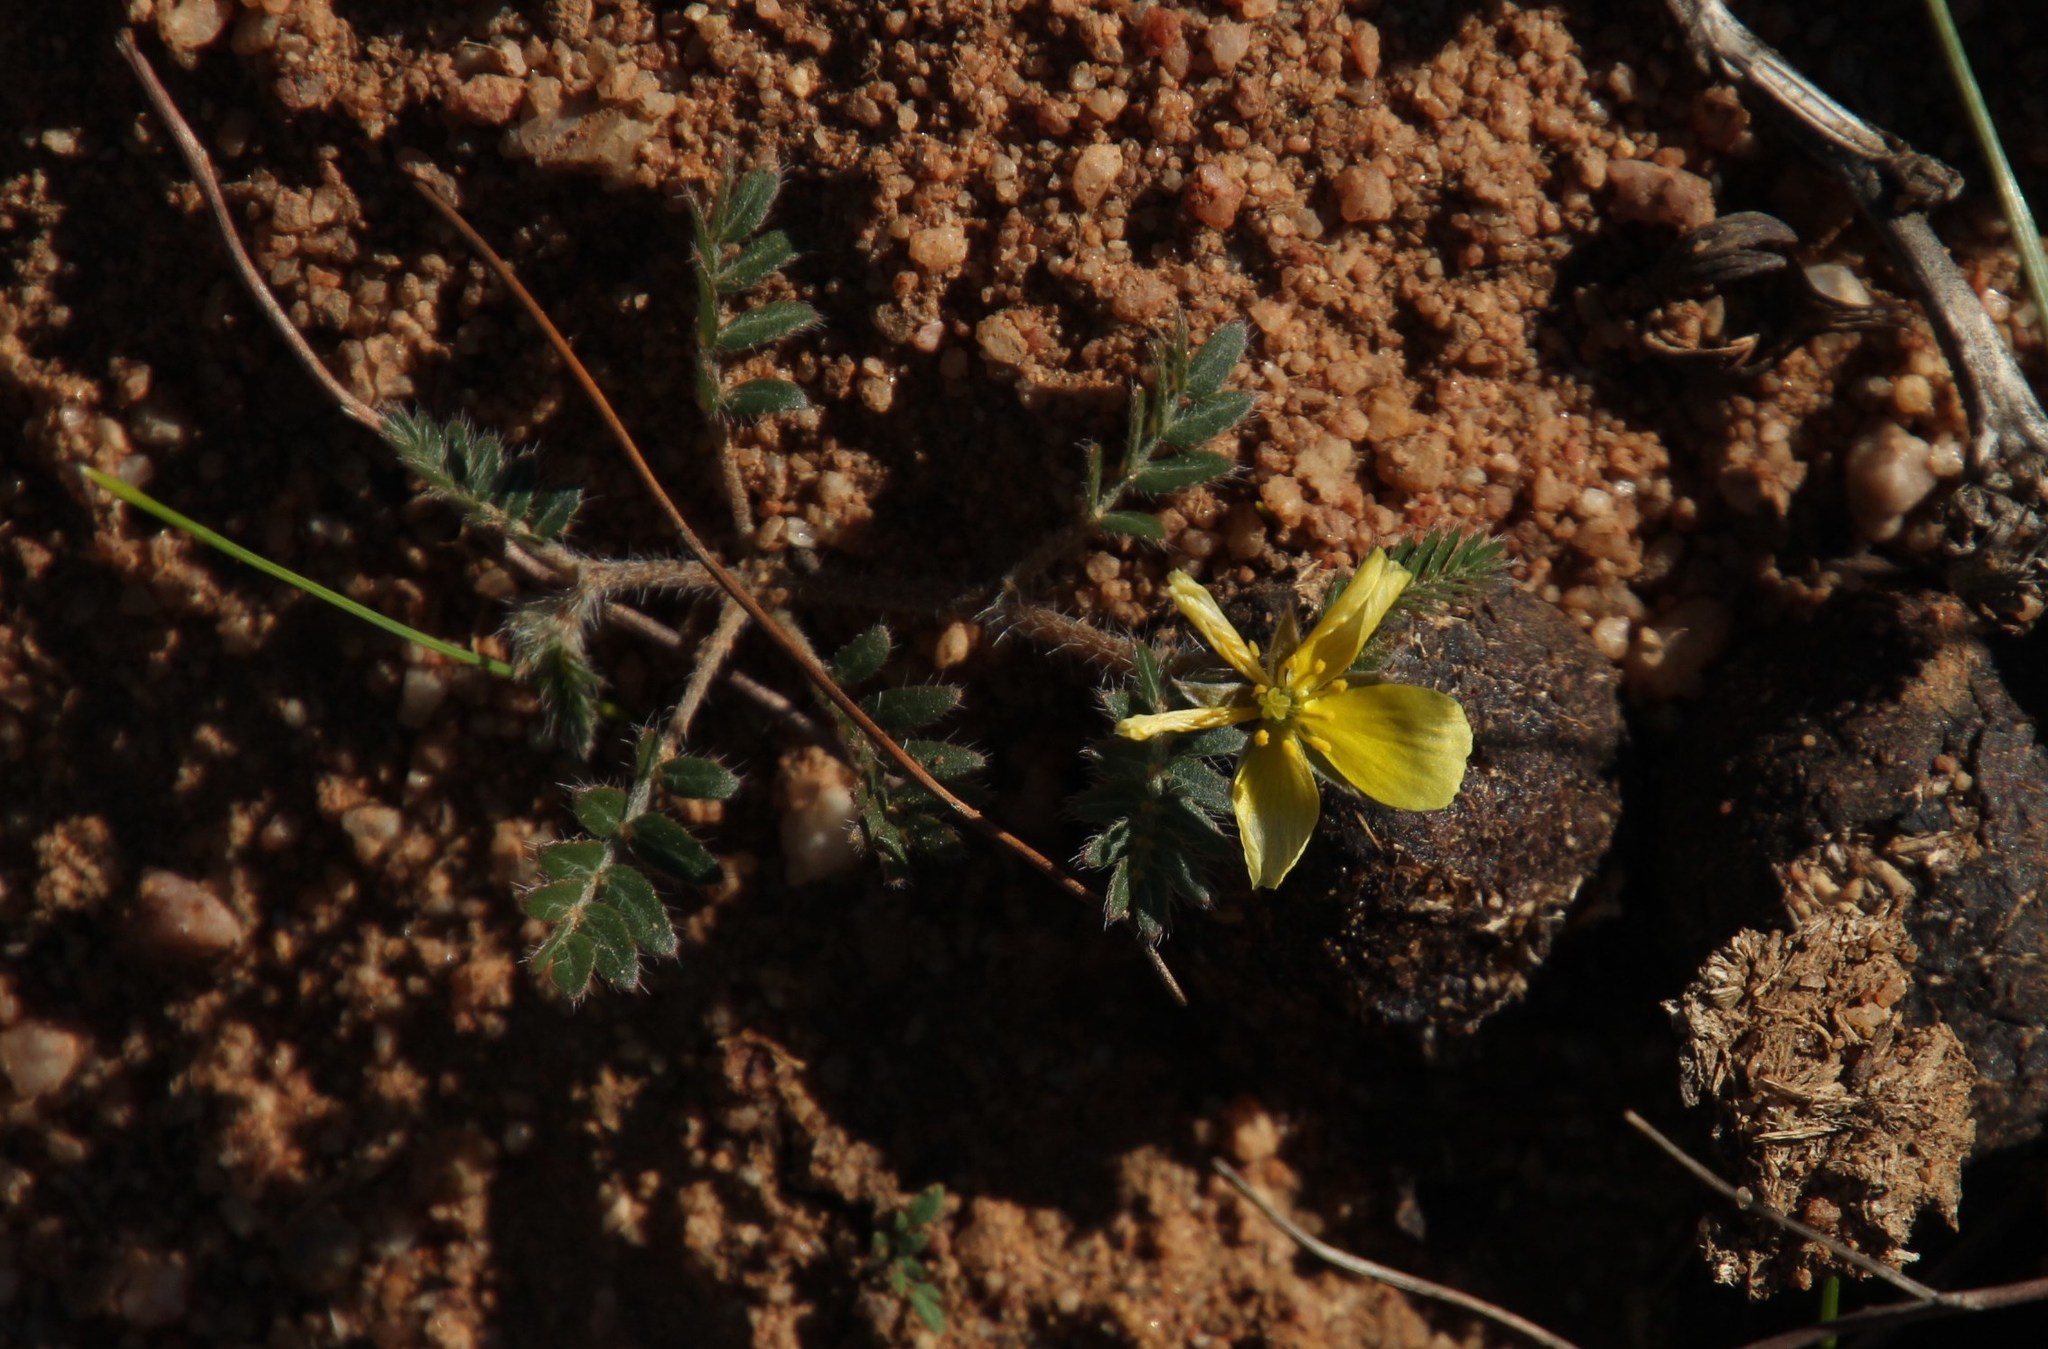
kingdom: Plantae
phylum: Tracheophyta
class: Magnoliopsida
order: Zygophyllales
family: Zygophyllaceae
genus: Tribulus
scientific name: Tribulus terrestris
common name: Puncturevine
